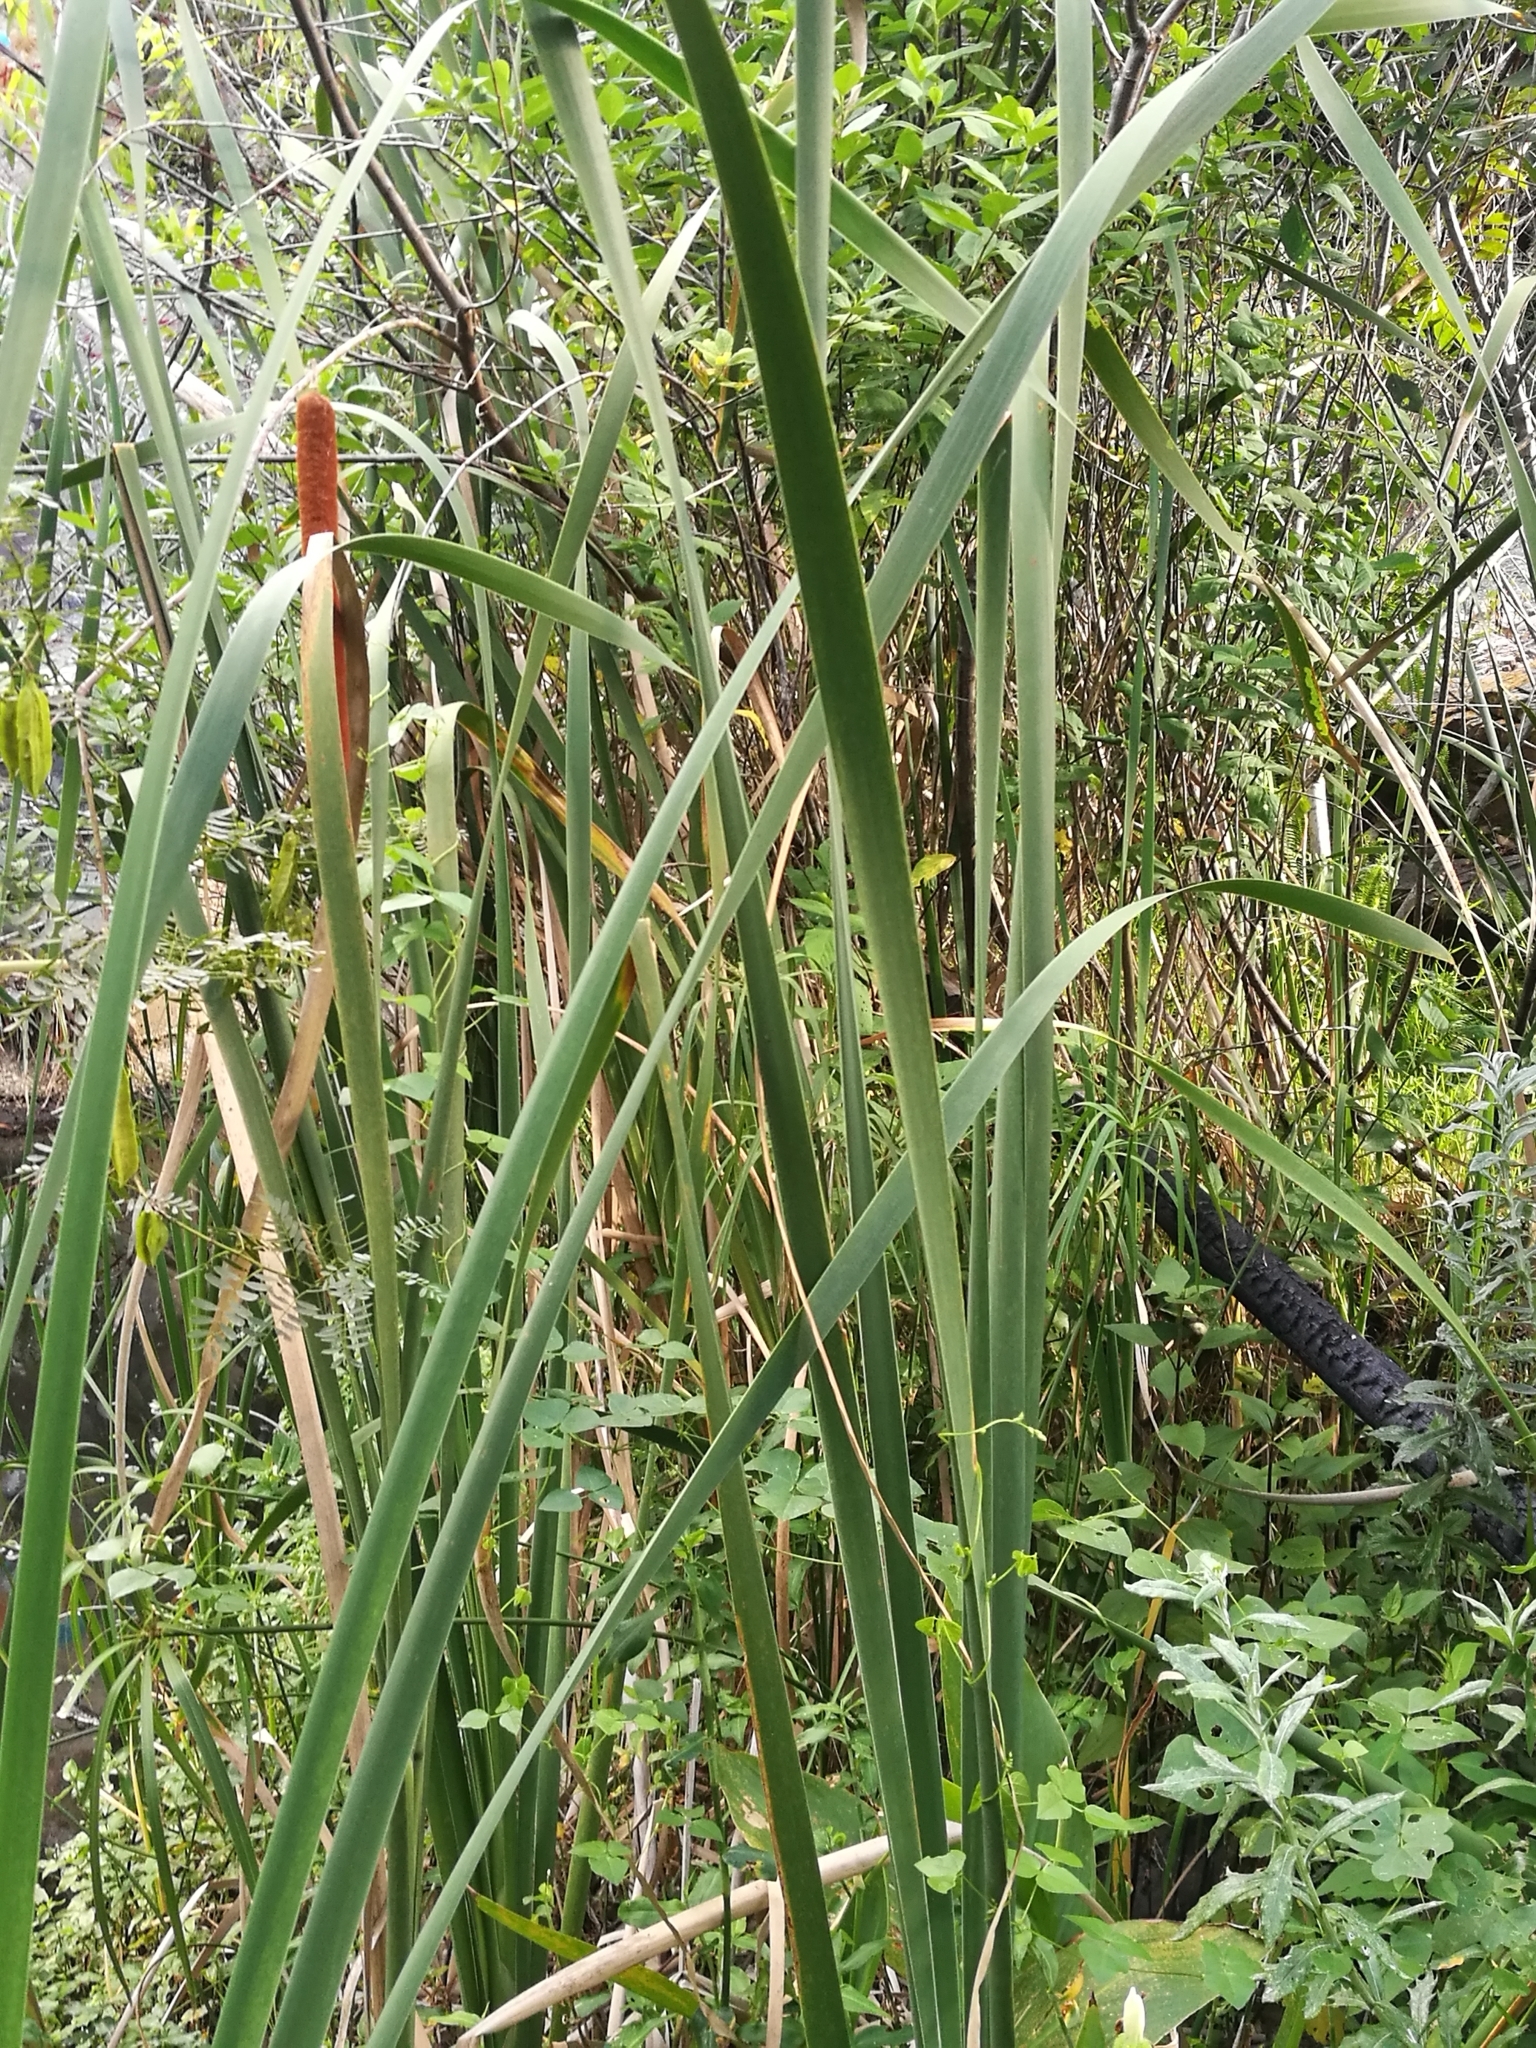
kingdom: Plantae
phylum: Tracheophyta
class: Liliopsida
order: Poales
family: Typhaceae
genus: Typha
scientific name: Typha capensis
